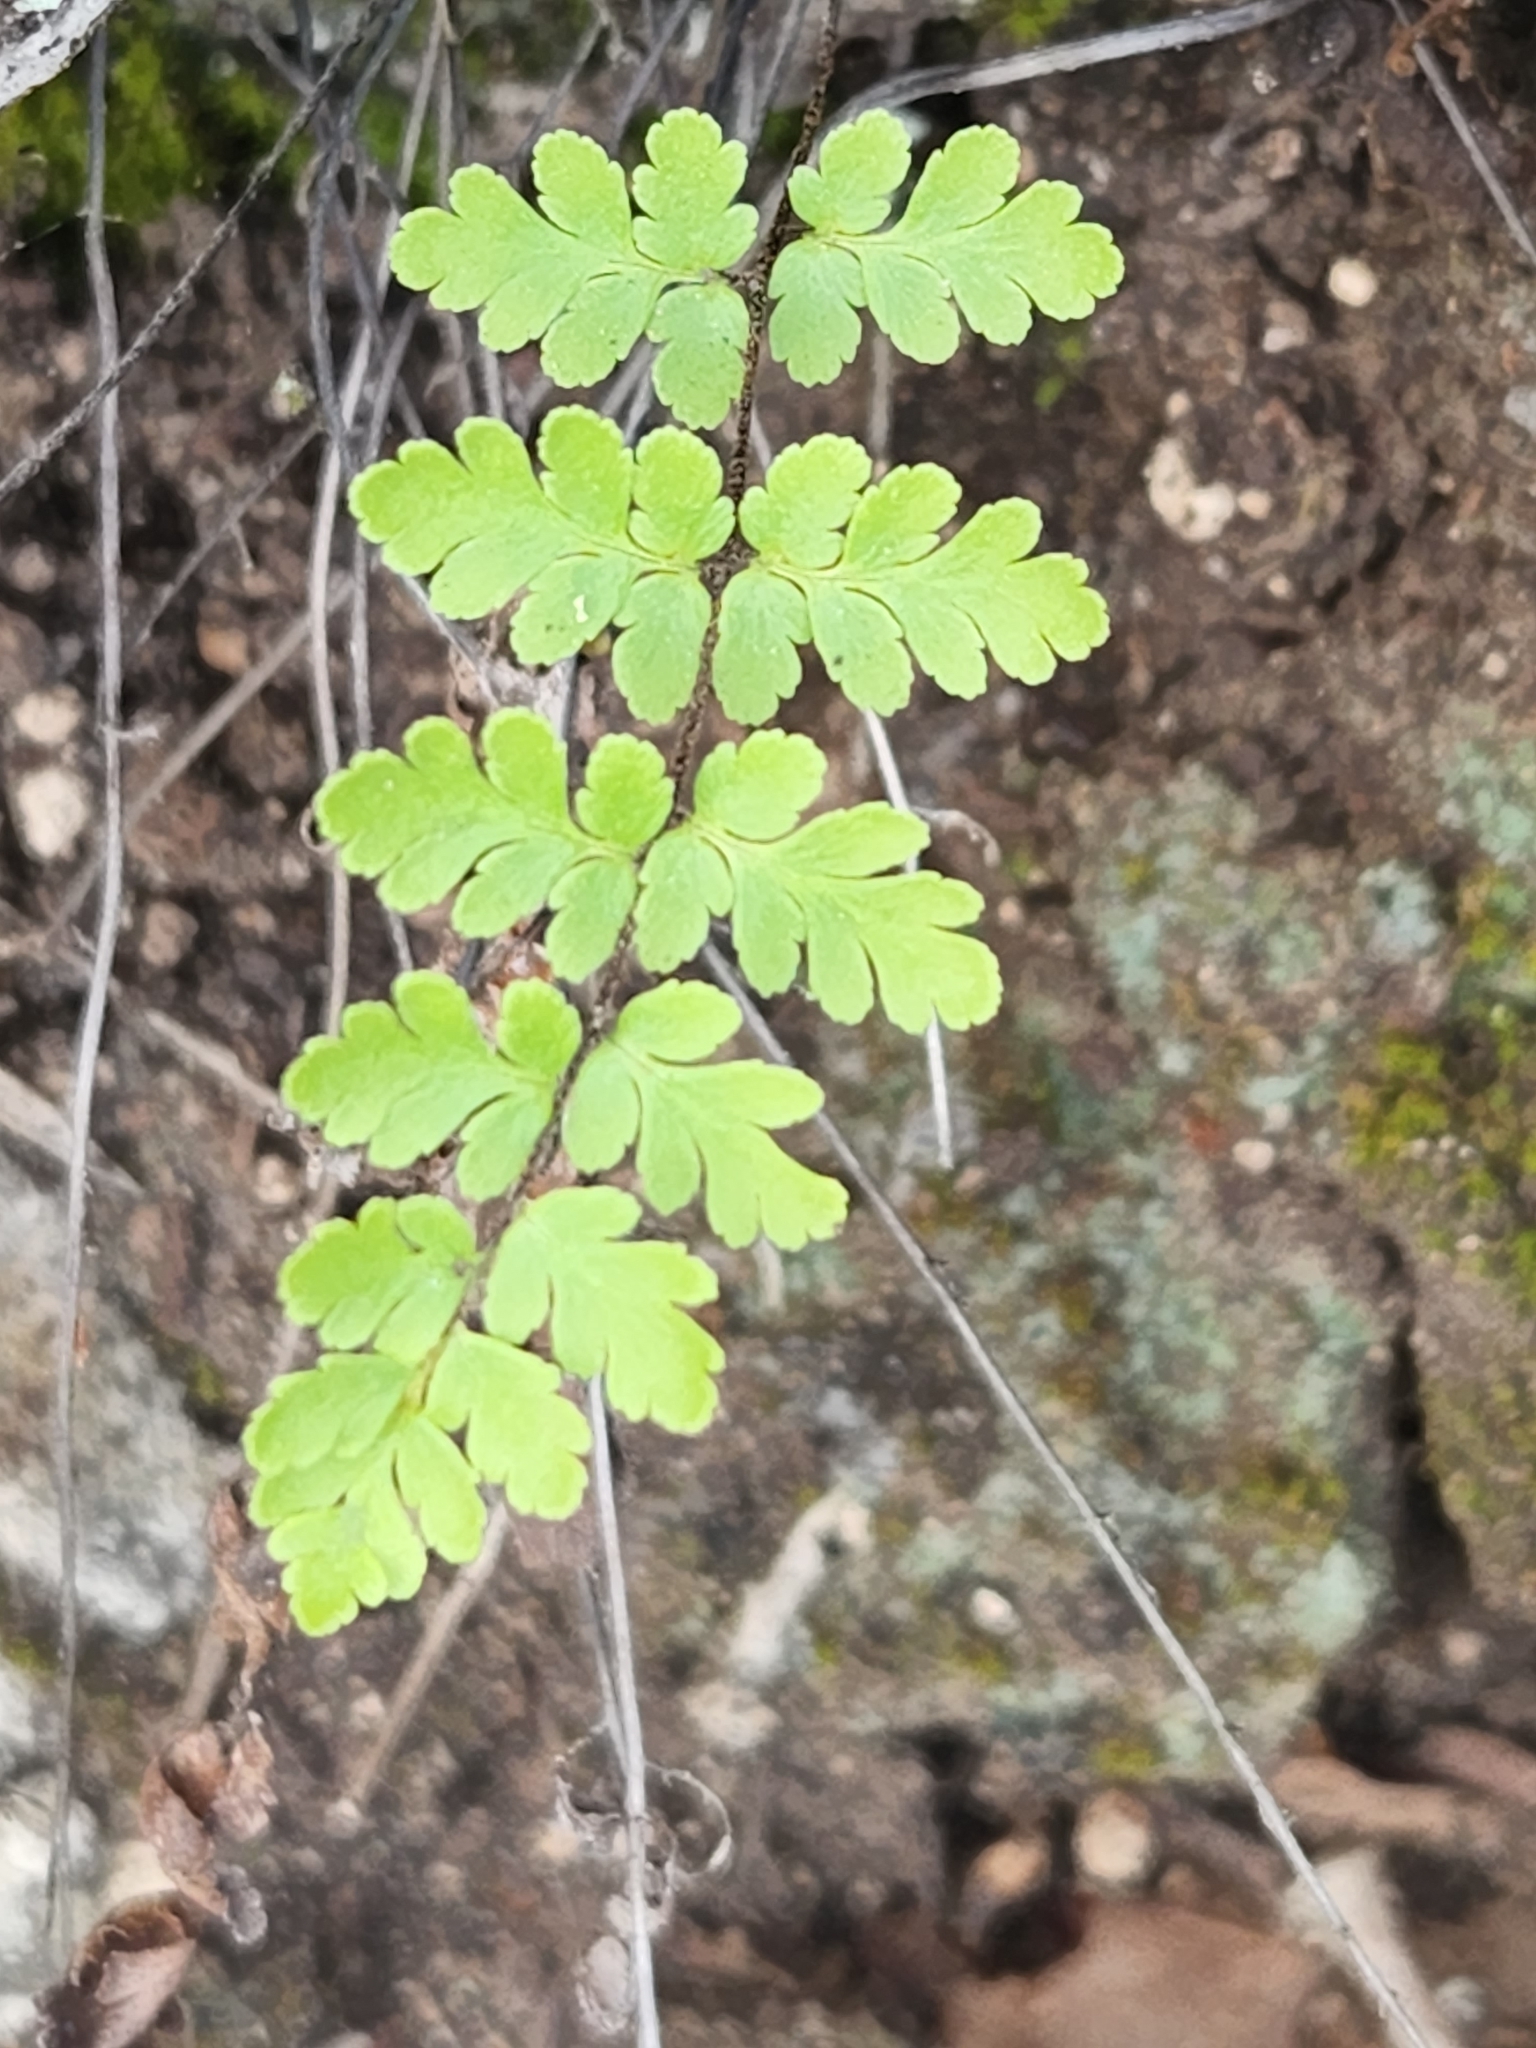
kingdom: Plantae
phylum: Tracheophyta
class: Polypodiopsida
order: Polypodiales
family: Pteridaceae
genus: Myriopteris
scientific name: Myriopteris alabamensis
